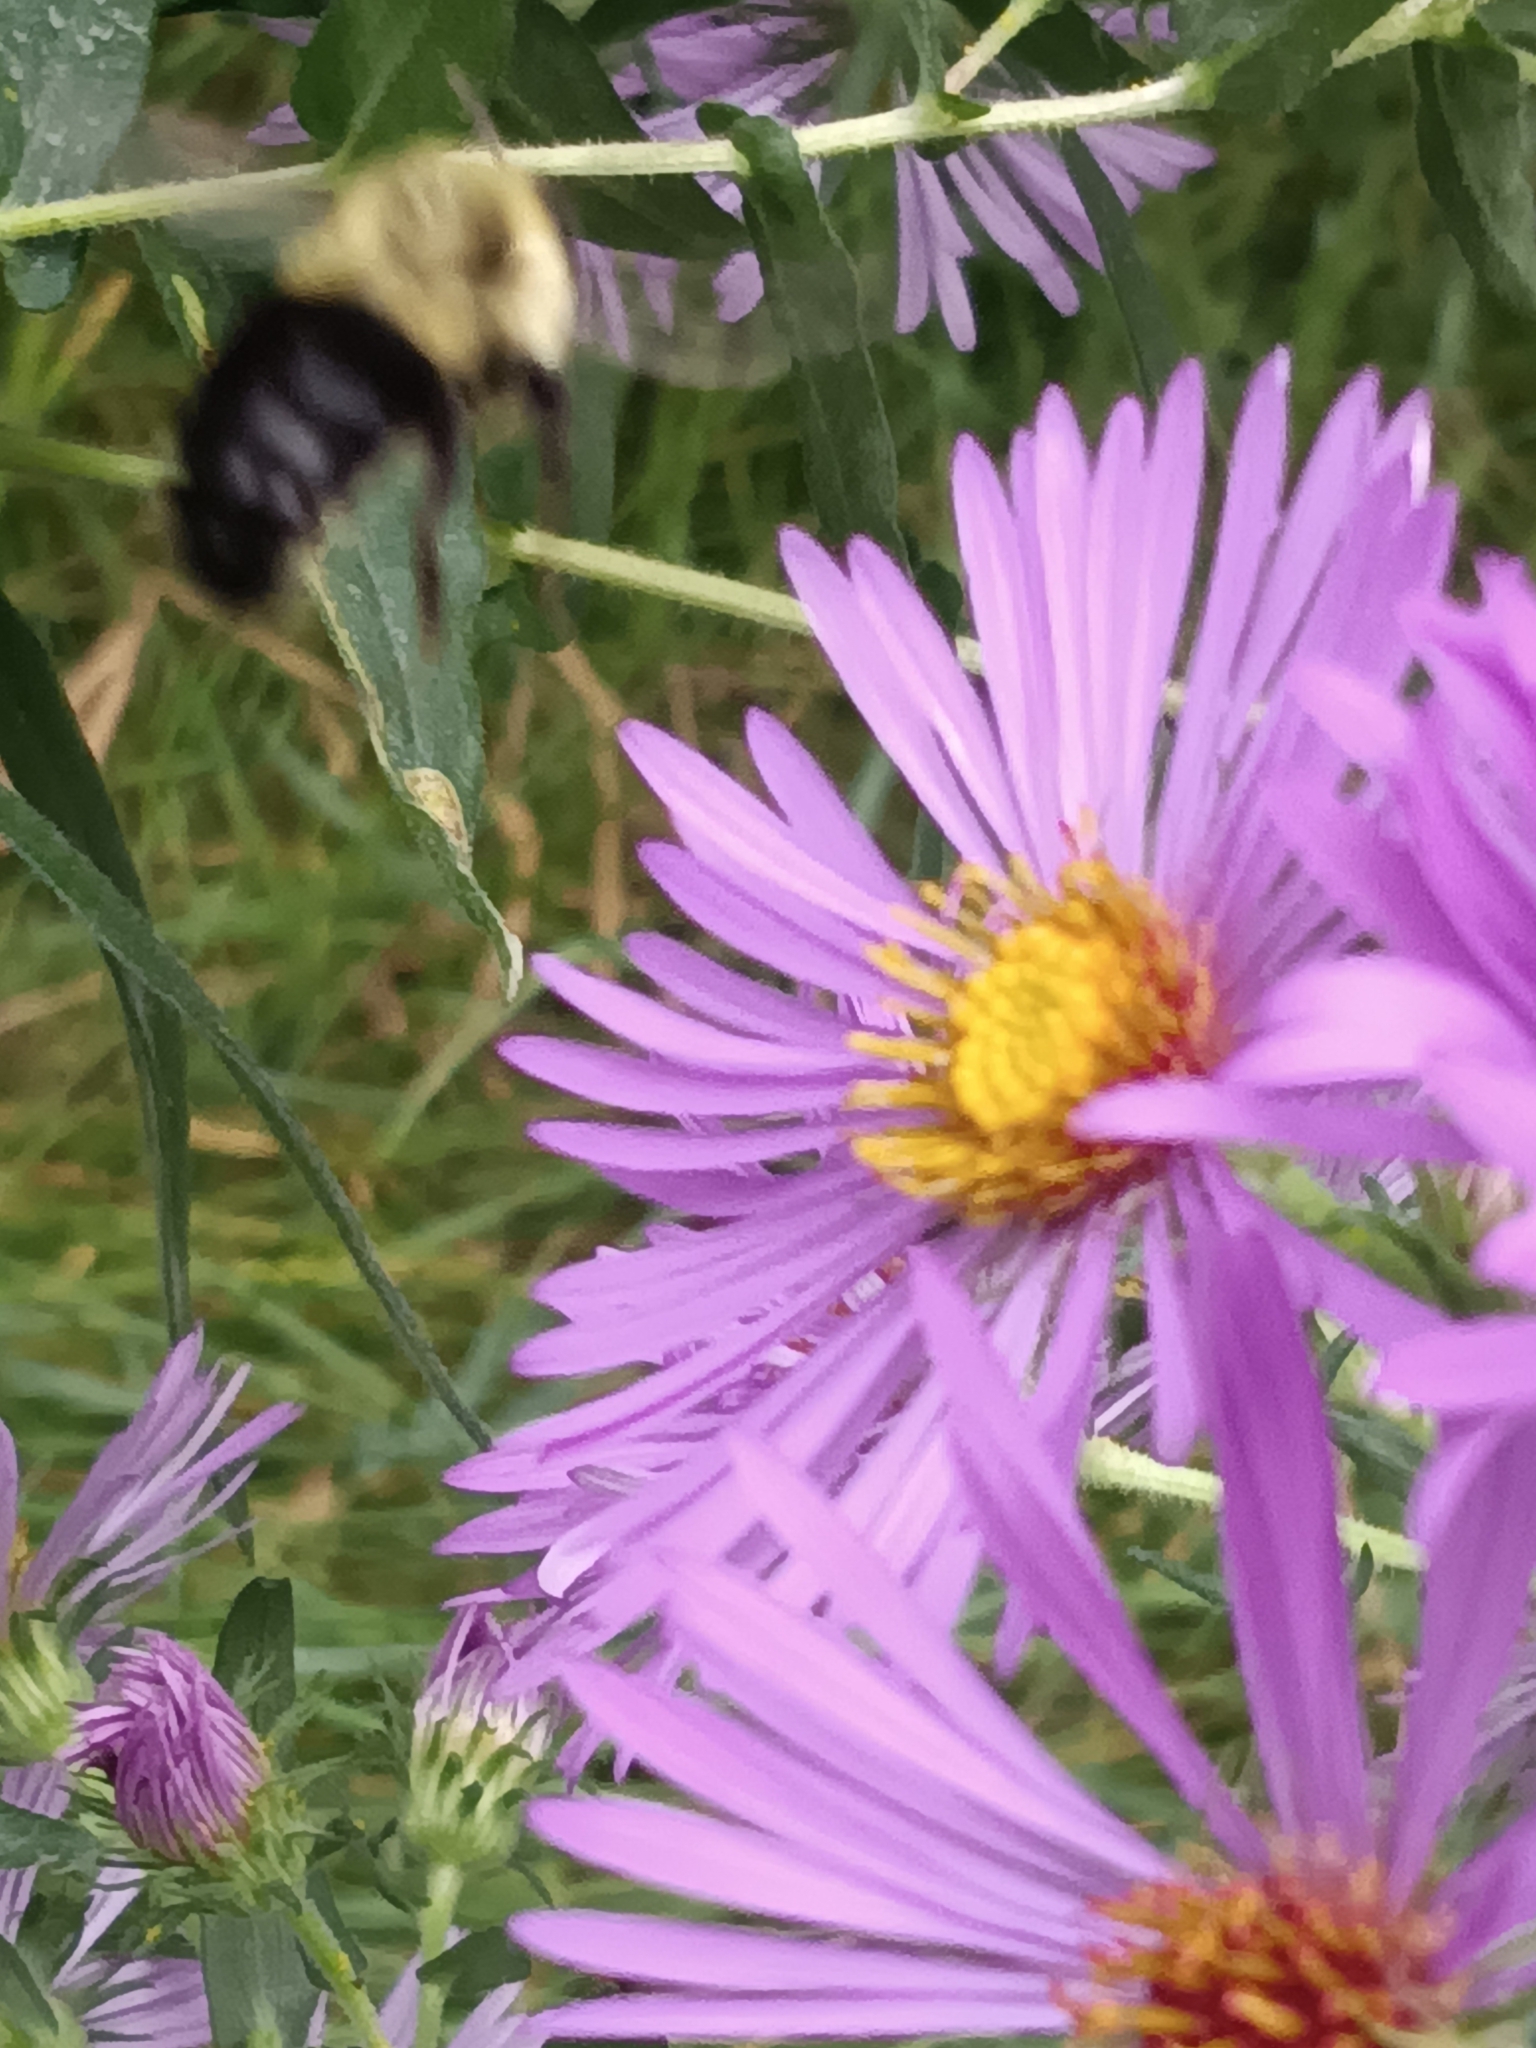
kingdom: Animalia
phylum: Arthropoda
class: Insecta
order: Hymenoptera
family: Apidae
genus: Bombus
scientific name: Bombus impatiens
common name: Common eastern bumble bee
